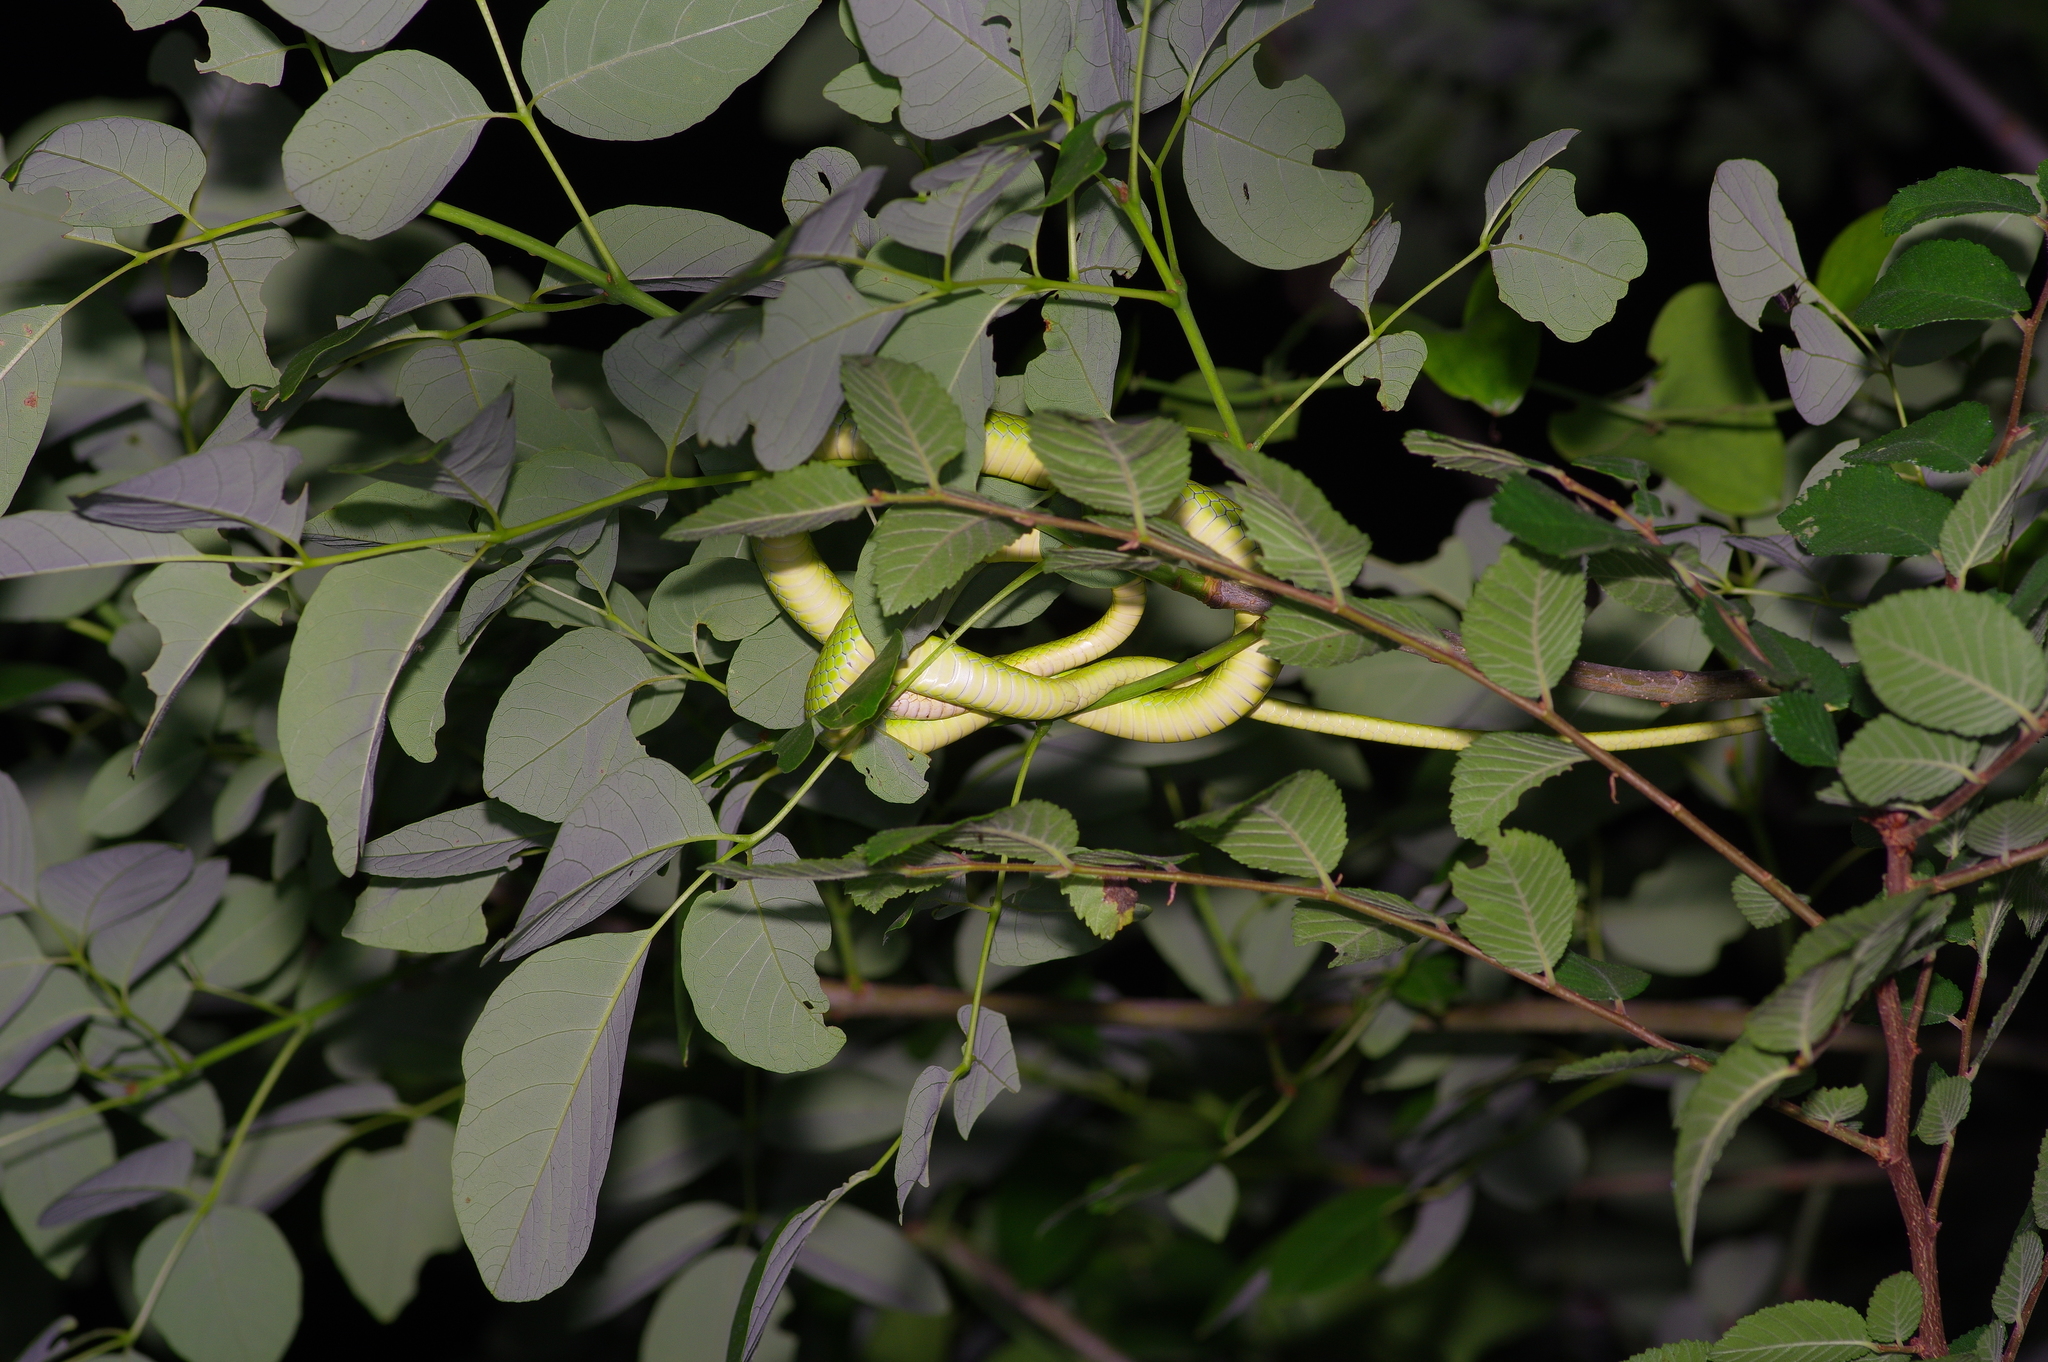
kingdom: Animalia
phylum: Chordata
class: Squamata
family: Colubridae
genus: Opheodrys
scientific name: Opheodrys aestivus
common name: Rough greensnake
